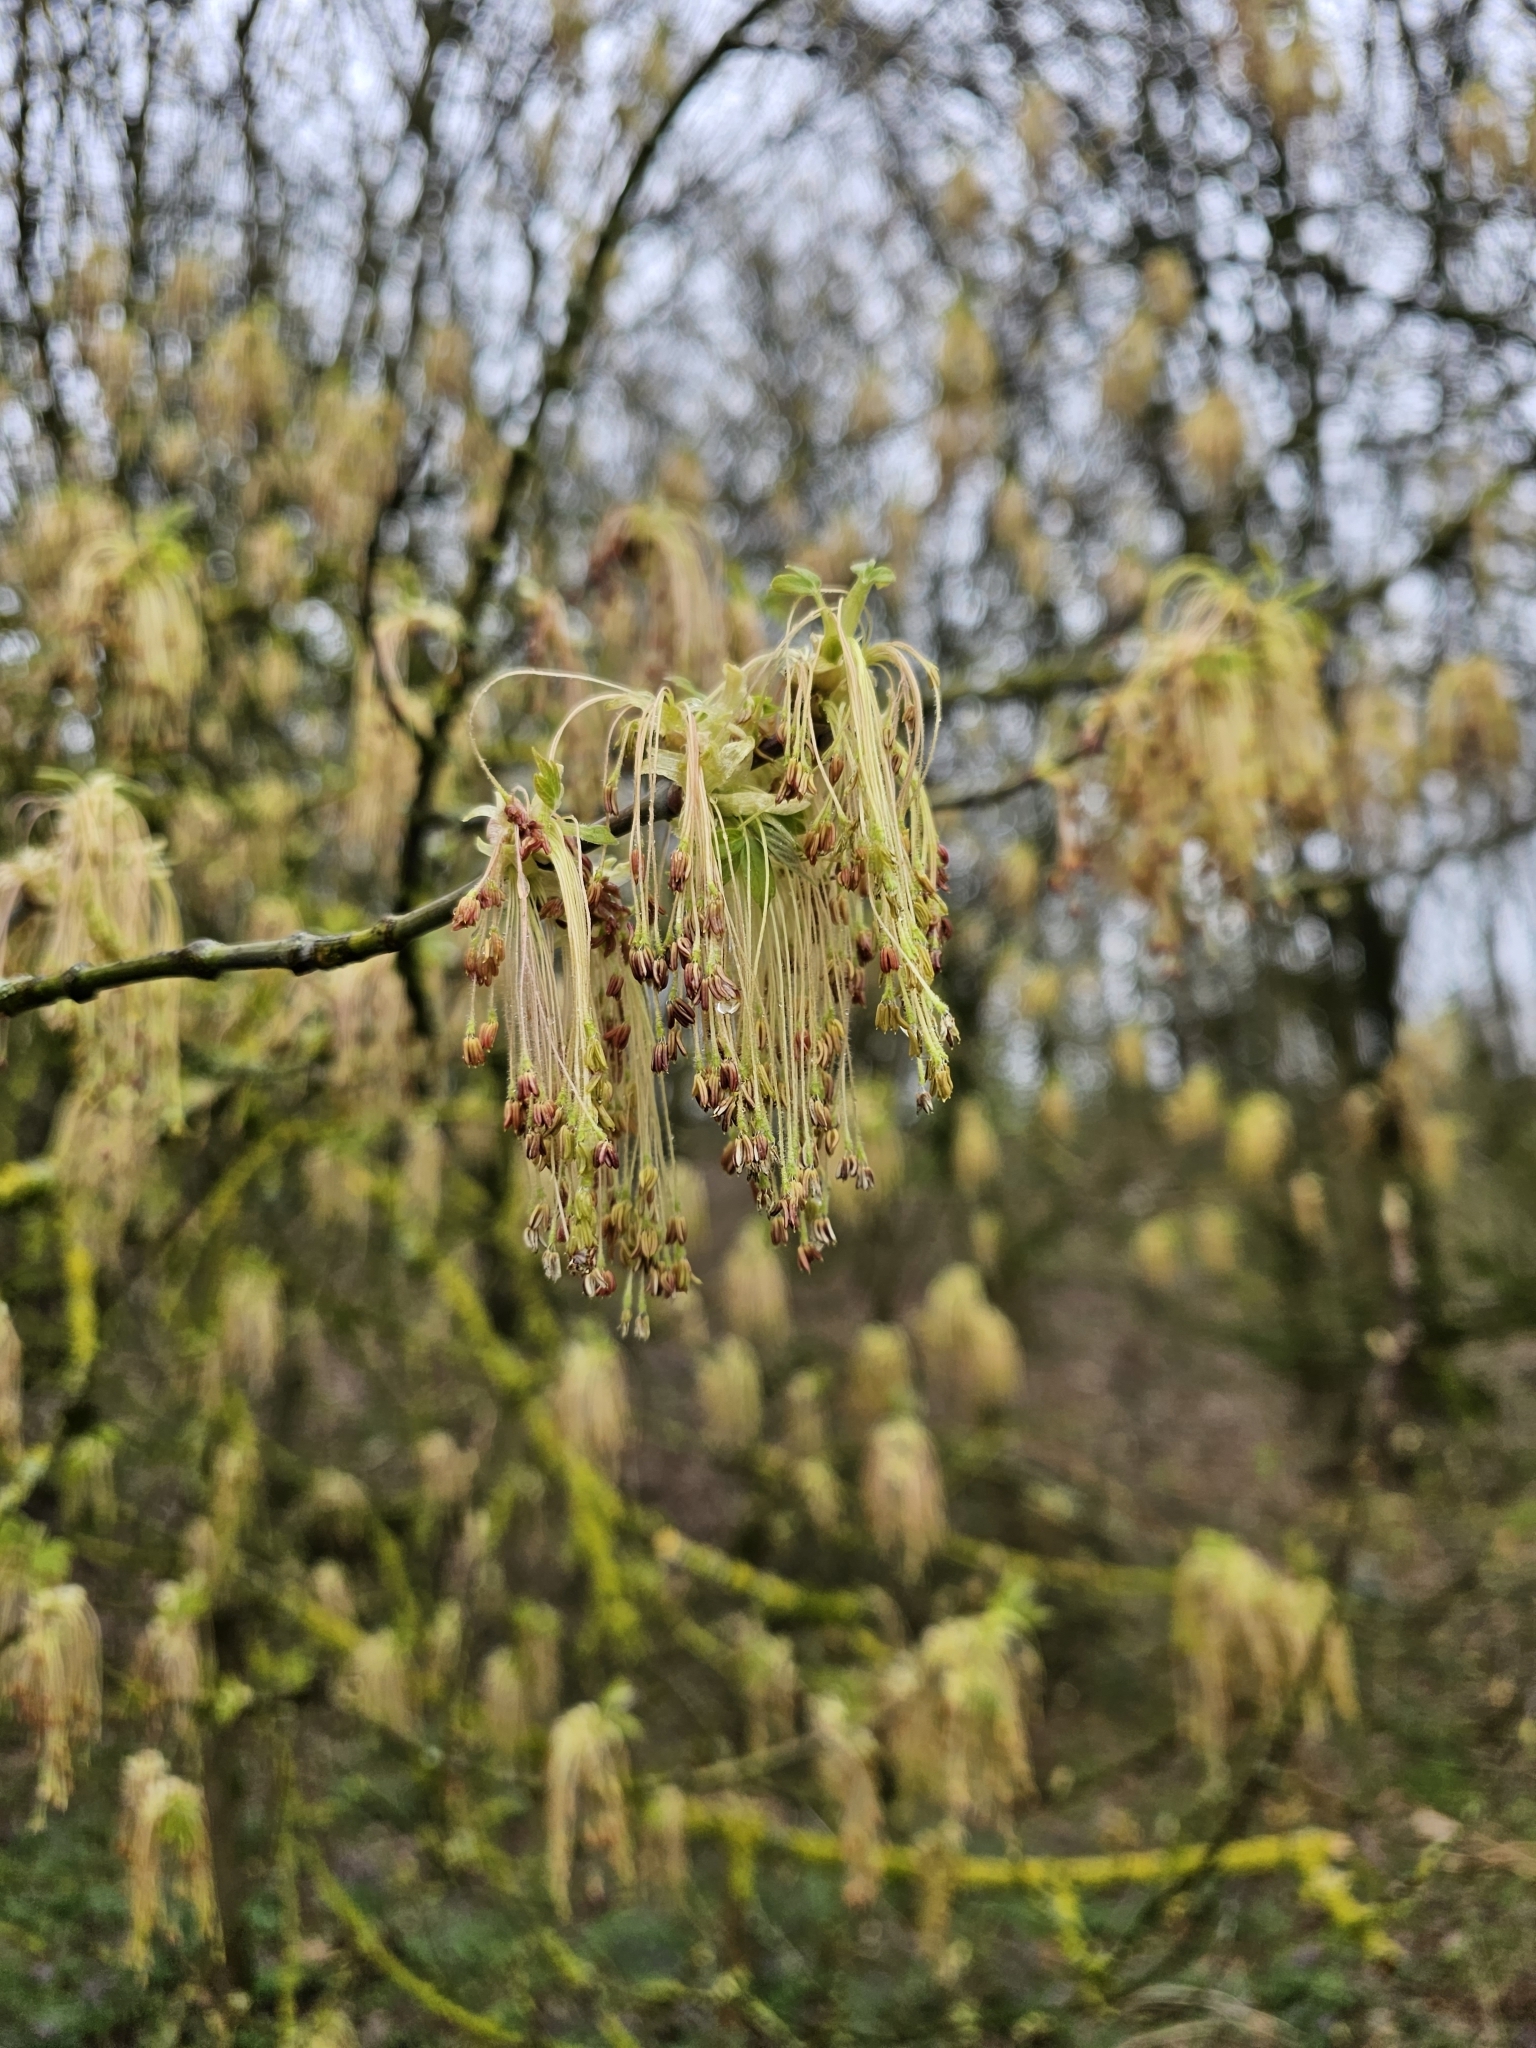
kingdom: Plantae
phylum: Tracheophyta
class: Magnoliopsida
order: Sapindales
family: Sapindaceae
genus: Acer
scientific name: Acer negundo
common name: Ashleaf maple
